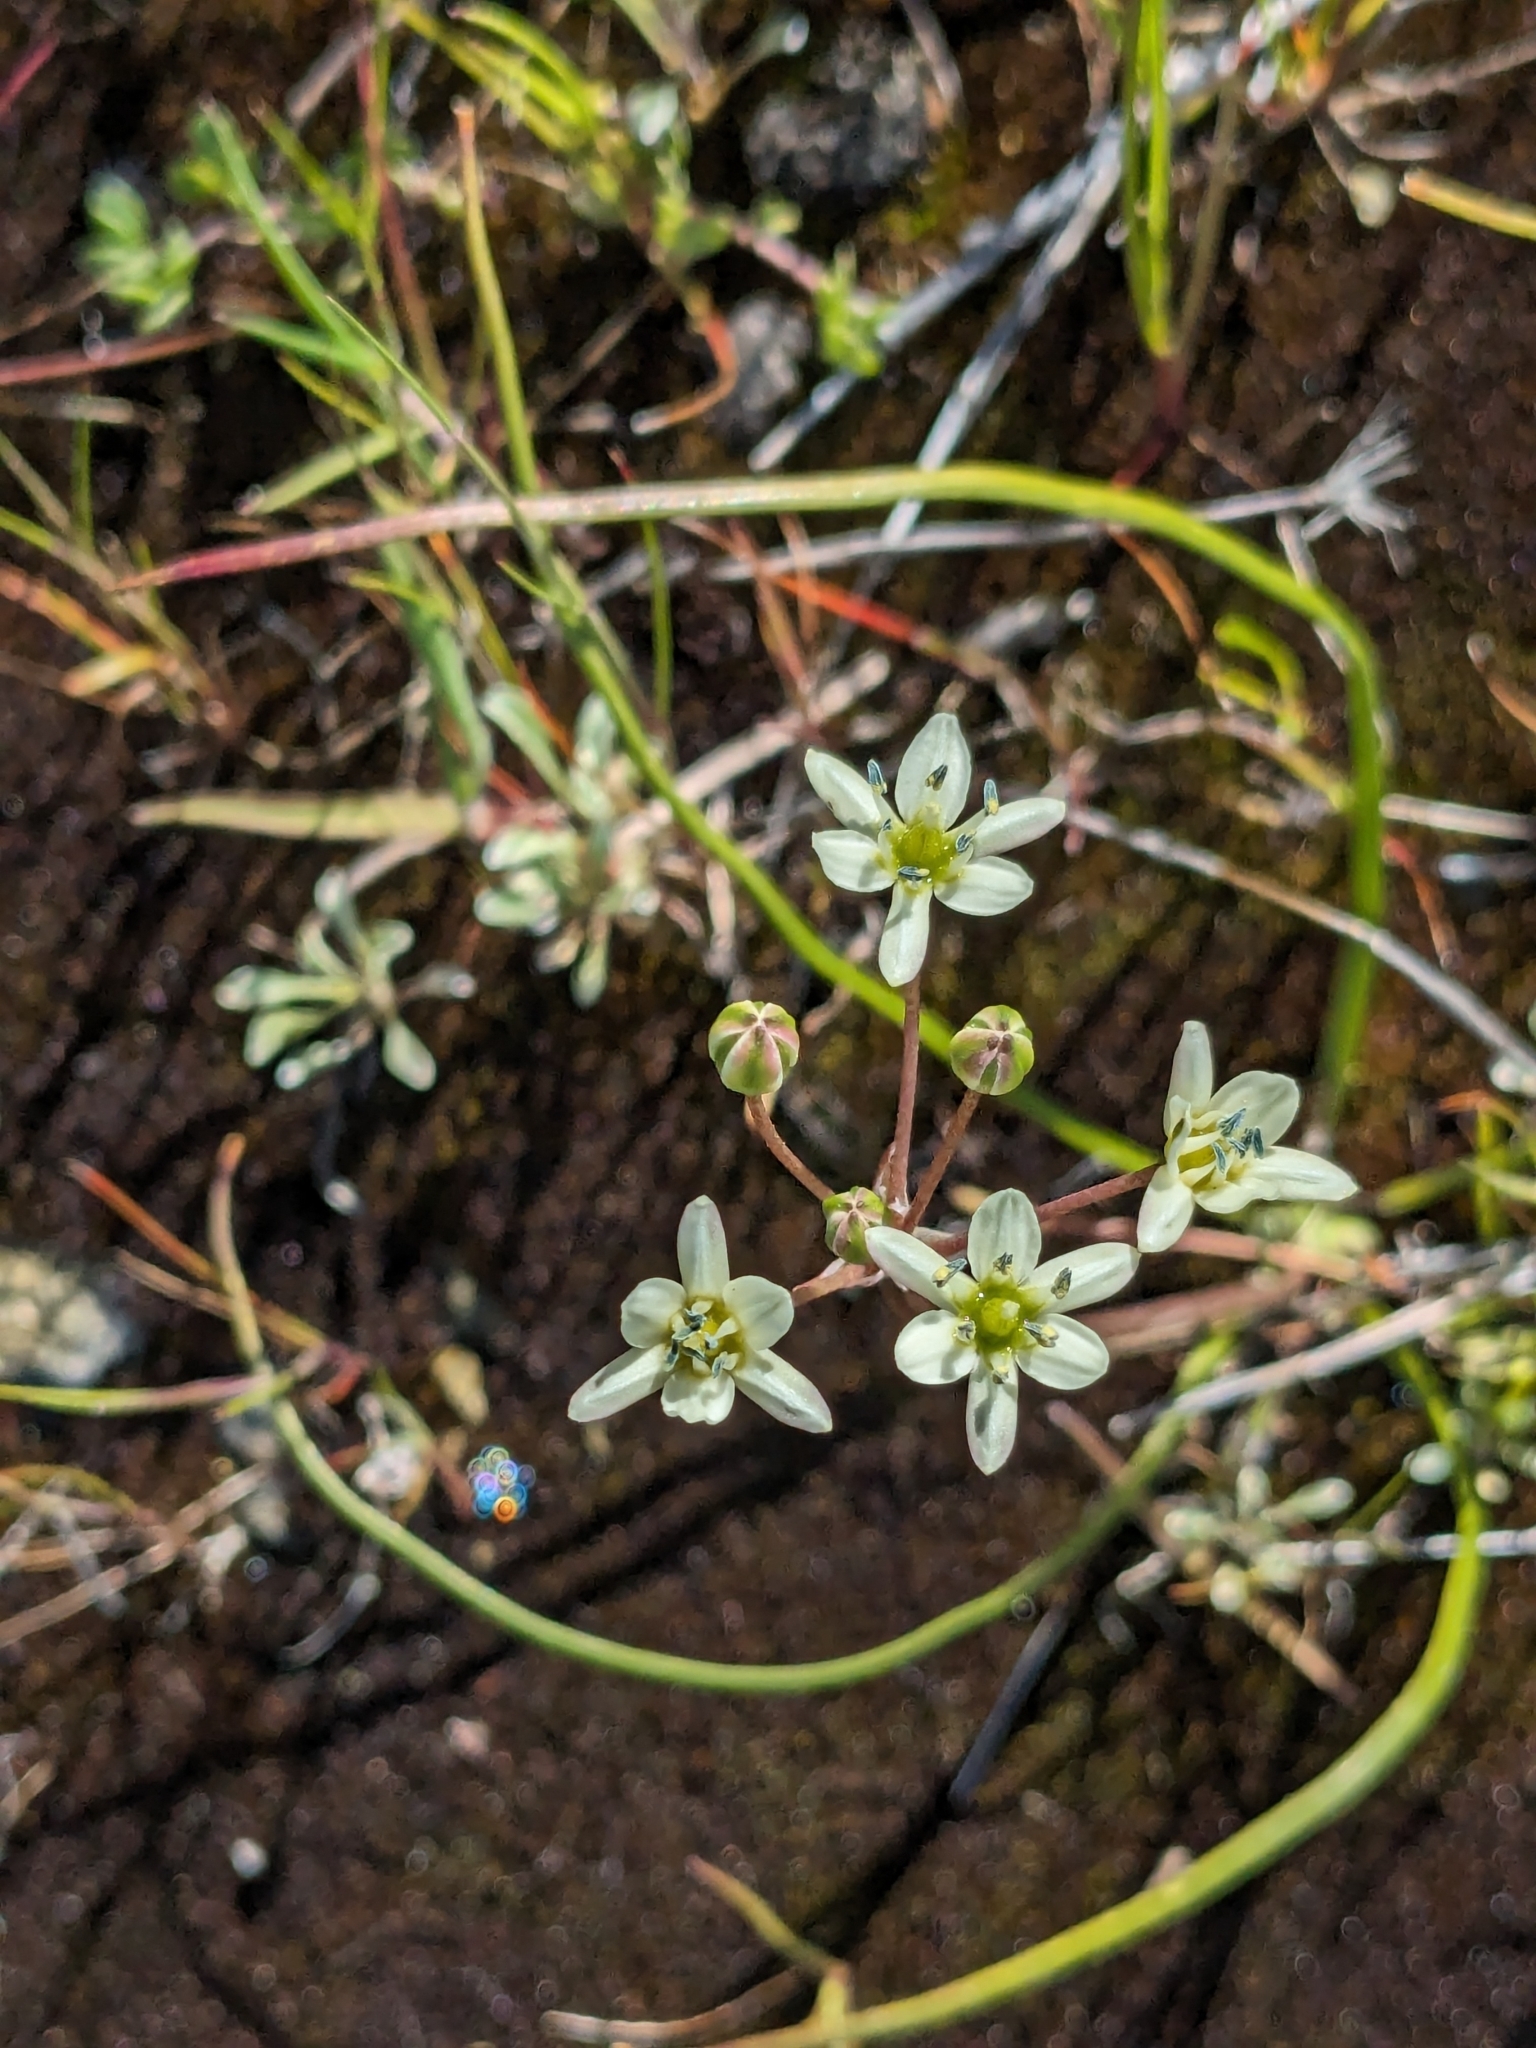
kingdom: Plantae
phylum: Tracheophyta
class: Liliopsida
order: Asparagales
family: Asparagaceae
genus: Muilla
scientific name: Muilla maritima
